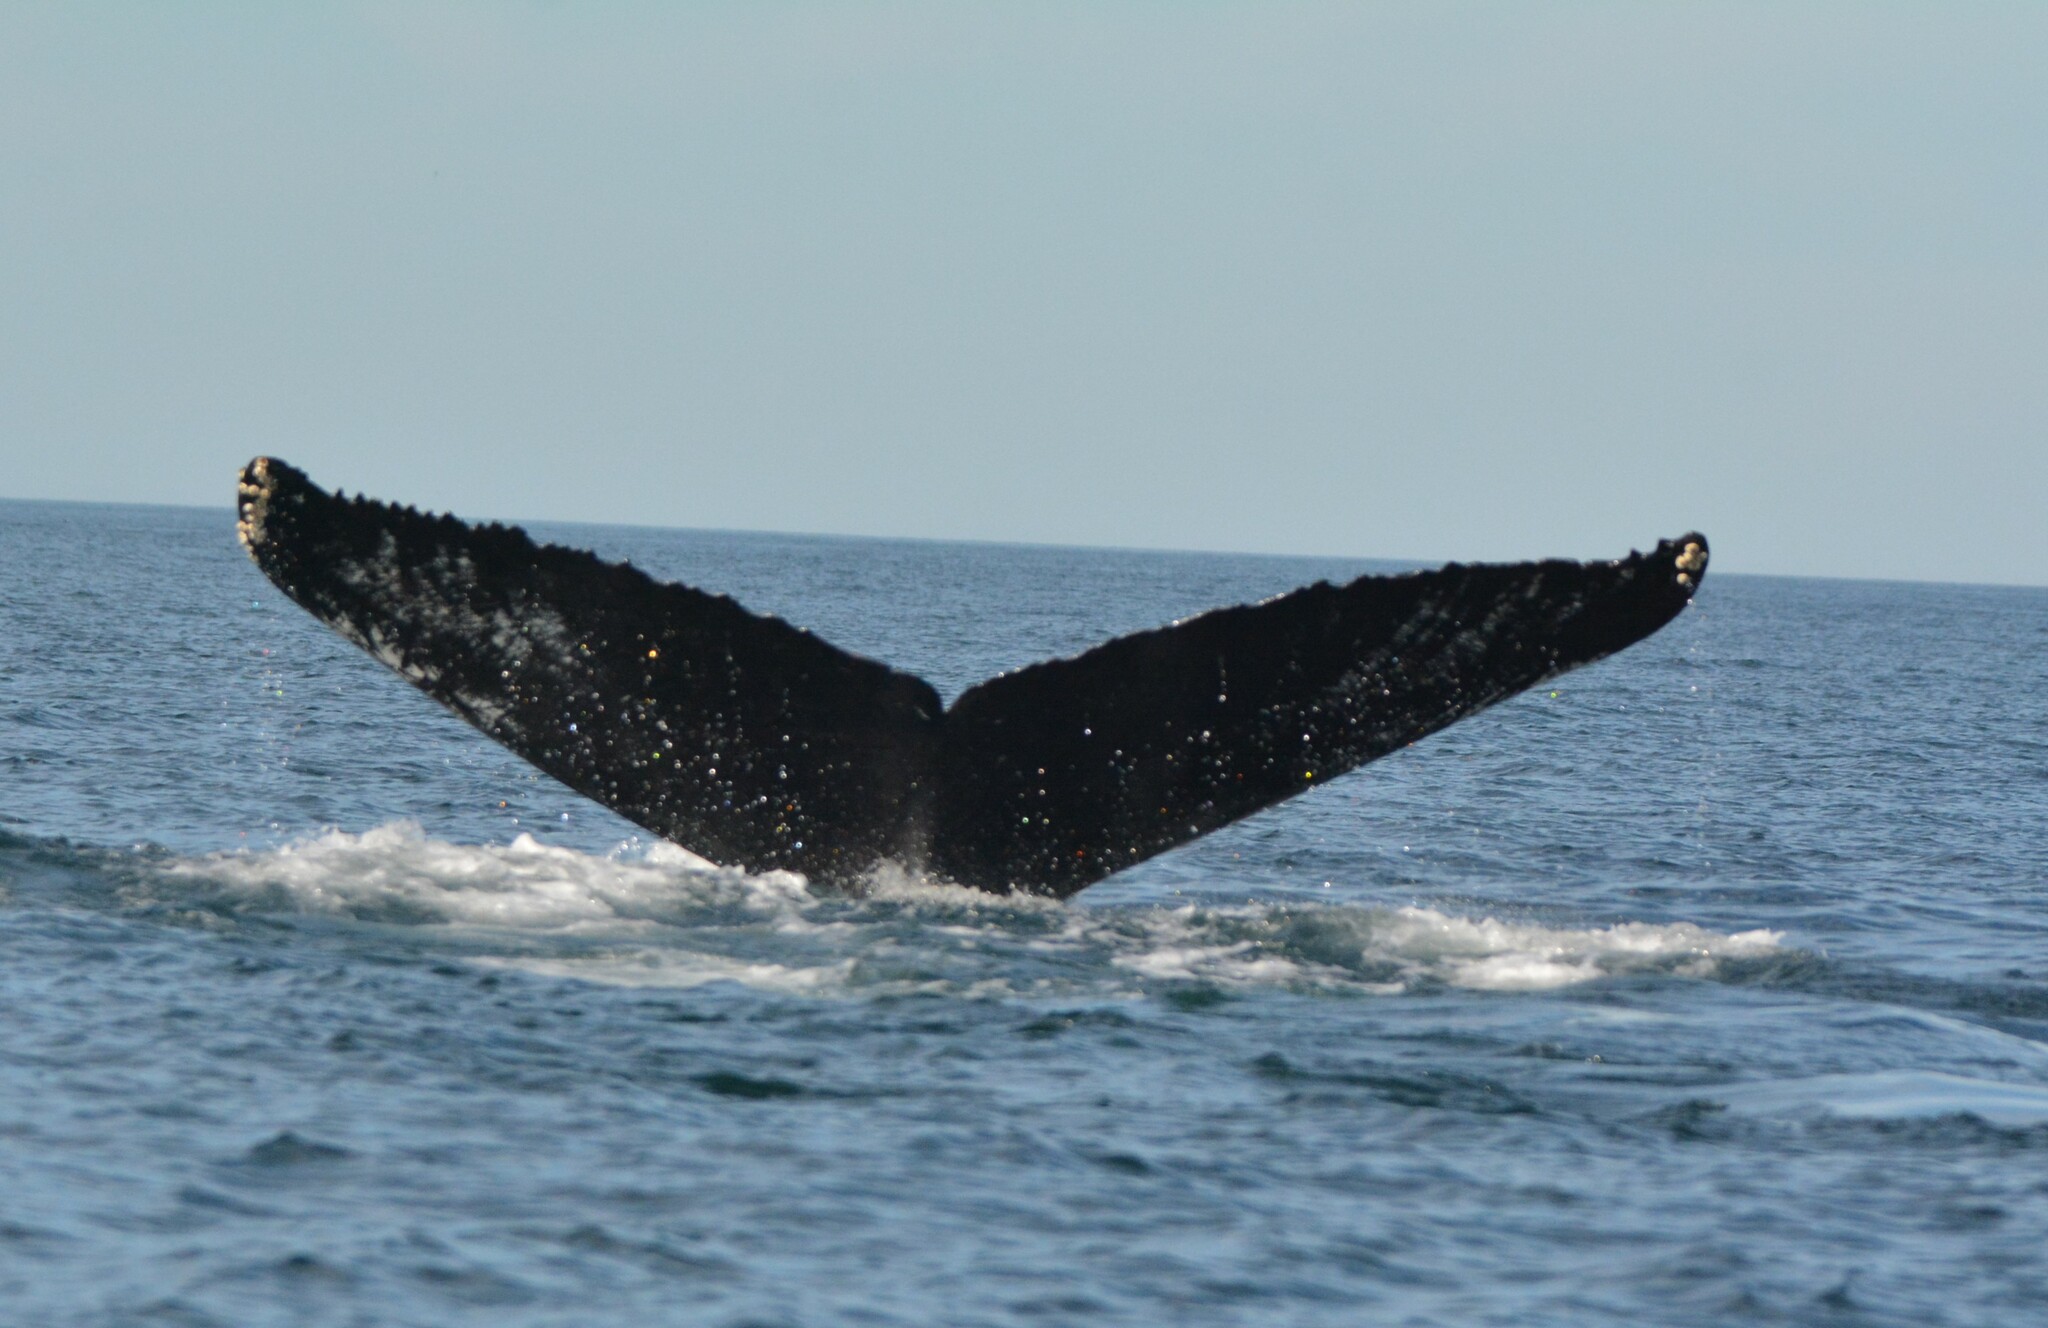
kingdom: Animalia
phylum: Chordata
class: Mammalia
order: Cetacea
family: Balaenopteridae
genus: Megaptera
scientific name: Megaptera novaeangliae
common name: Humpback whale
